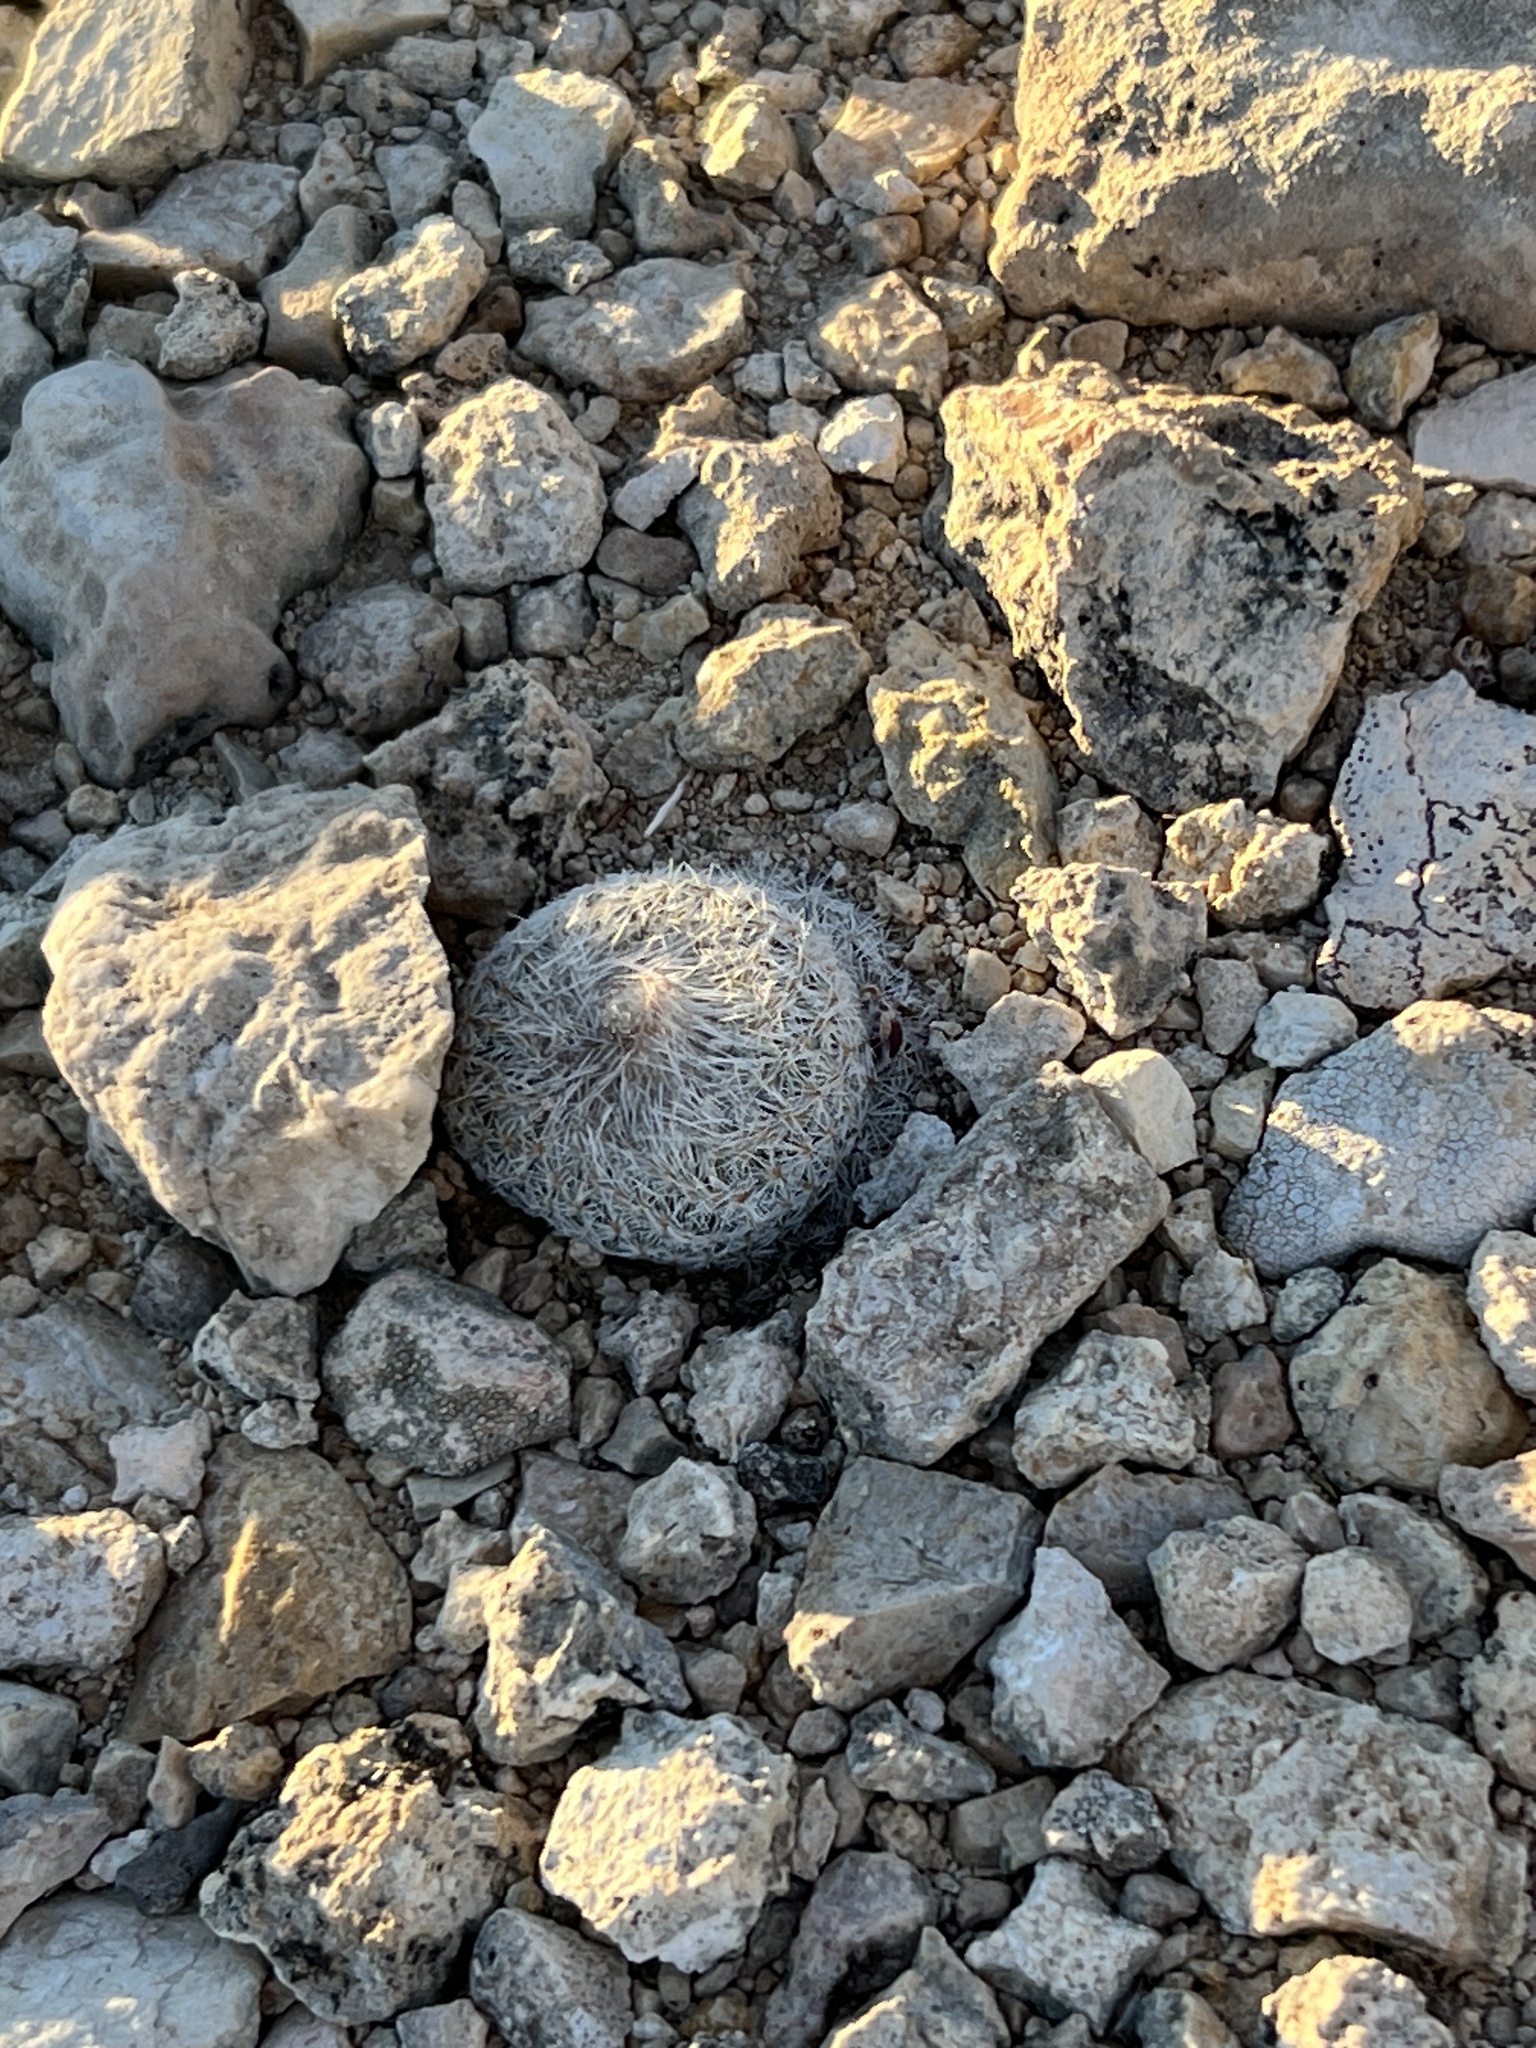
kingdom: Plantae
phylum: Tracheophyta
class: Magnoliopsida
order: Caryophyllales
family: Cactaceae
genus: Epithelantha
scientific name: Epithelantha micromeris
